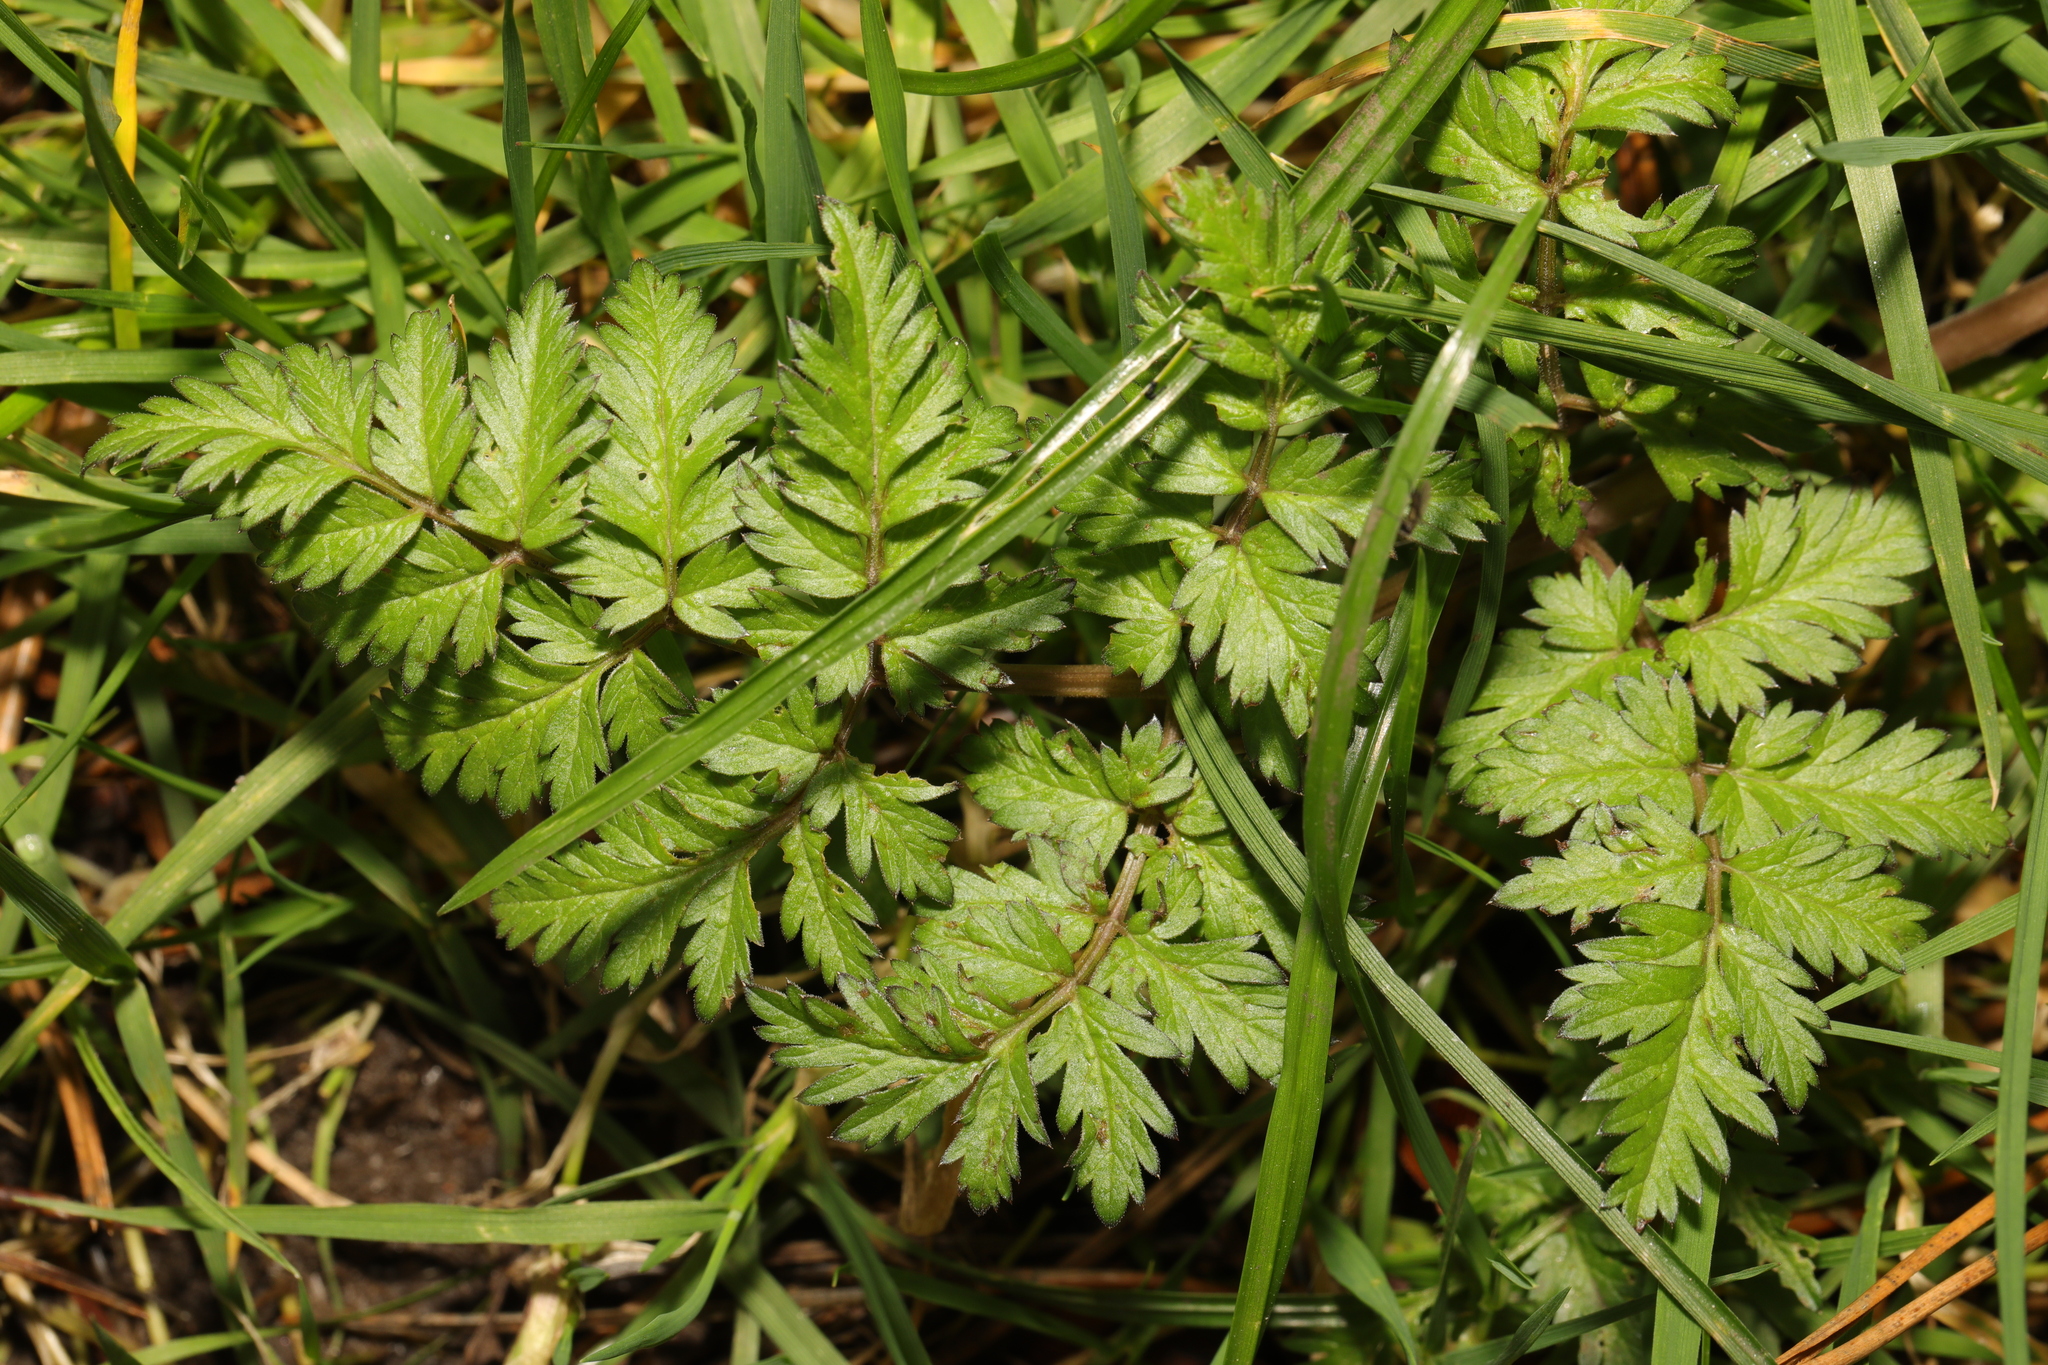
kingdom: Plantae
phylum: Tracheophyta
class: Magnoliopsida
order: Apiales
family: Apiaceae
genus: Anthriscus
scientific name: Anthriscus sylvestris
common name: Cow parsley
